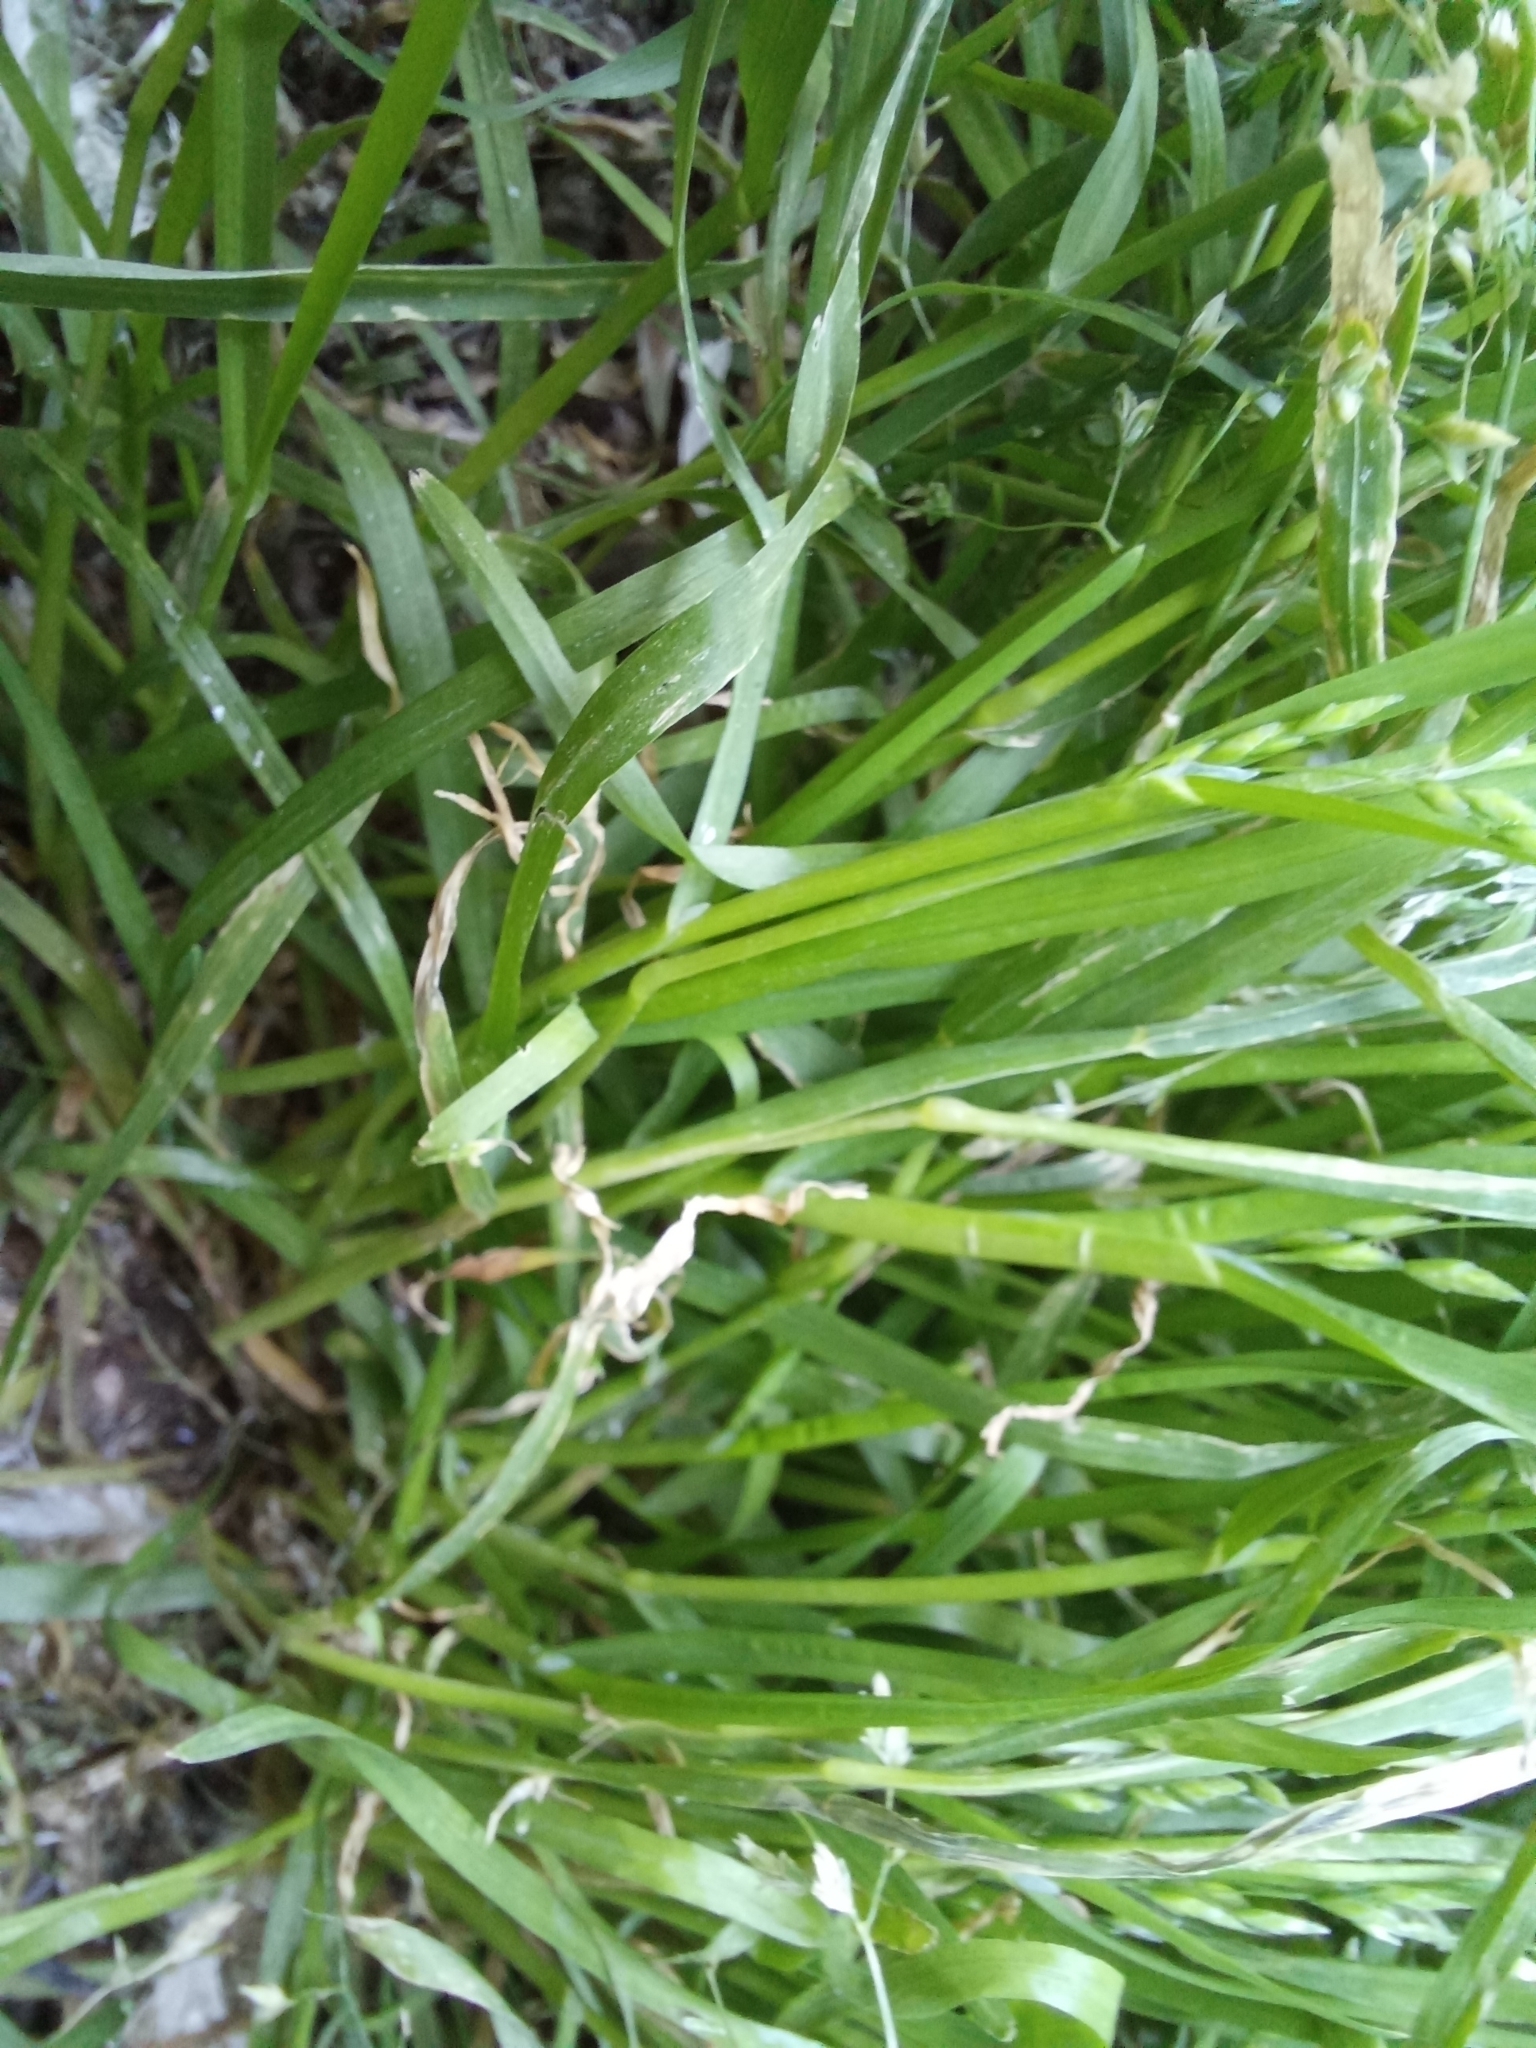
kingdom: Plantae
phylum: Tracheophyta
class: Liliopsida
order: Poales
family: Poaceae
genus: Poa
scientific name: Poa annua
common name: Annual bluegrass
